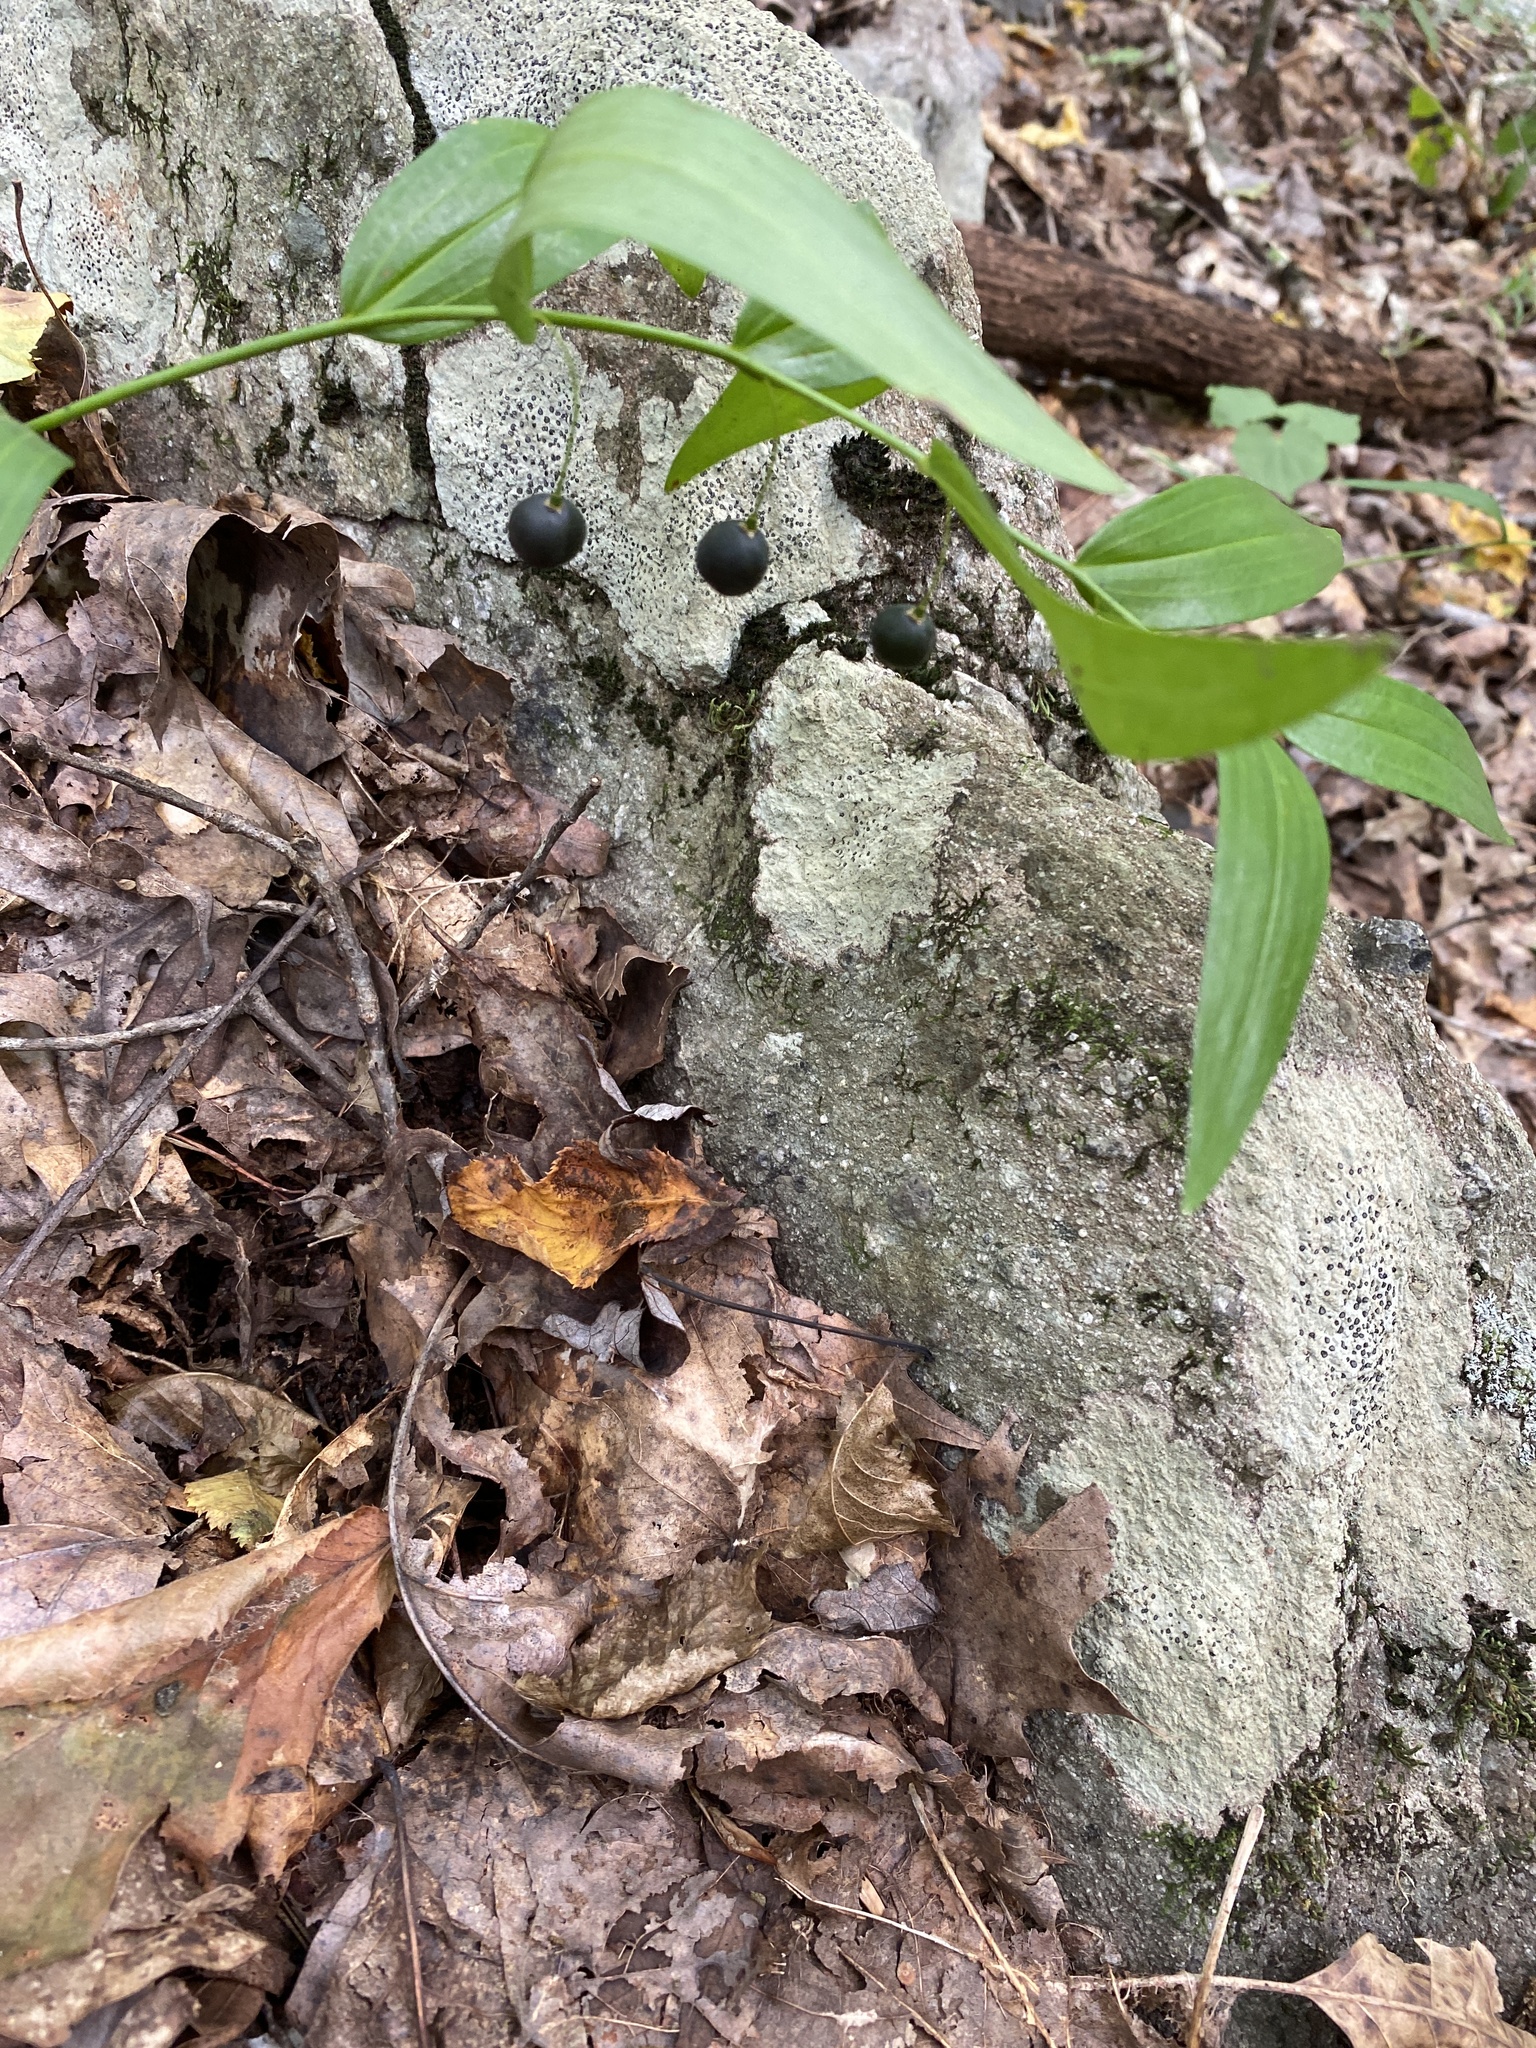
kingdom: Plantae
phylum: Tracheophyta
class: Liliopsida
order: Asparagales
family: Asparagaceae
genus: Polygonatum
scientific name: Polygonatum biflorum
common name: American solomon's-seal
